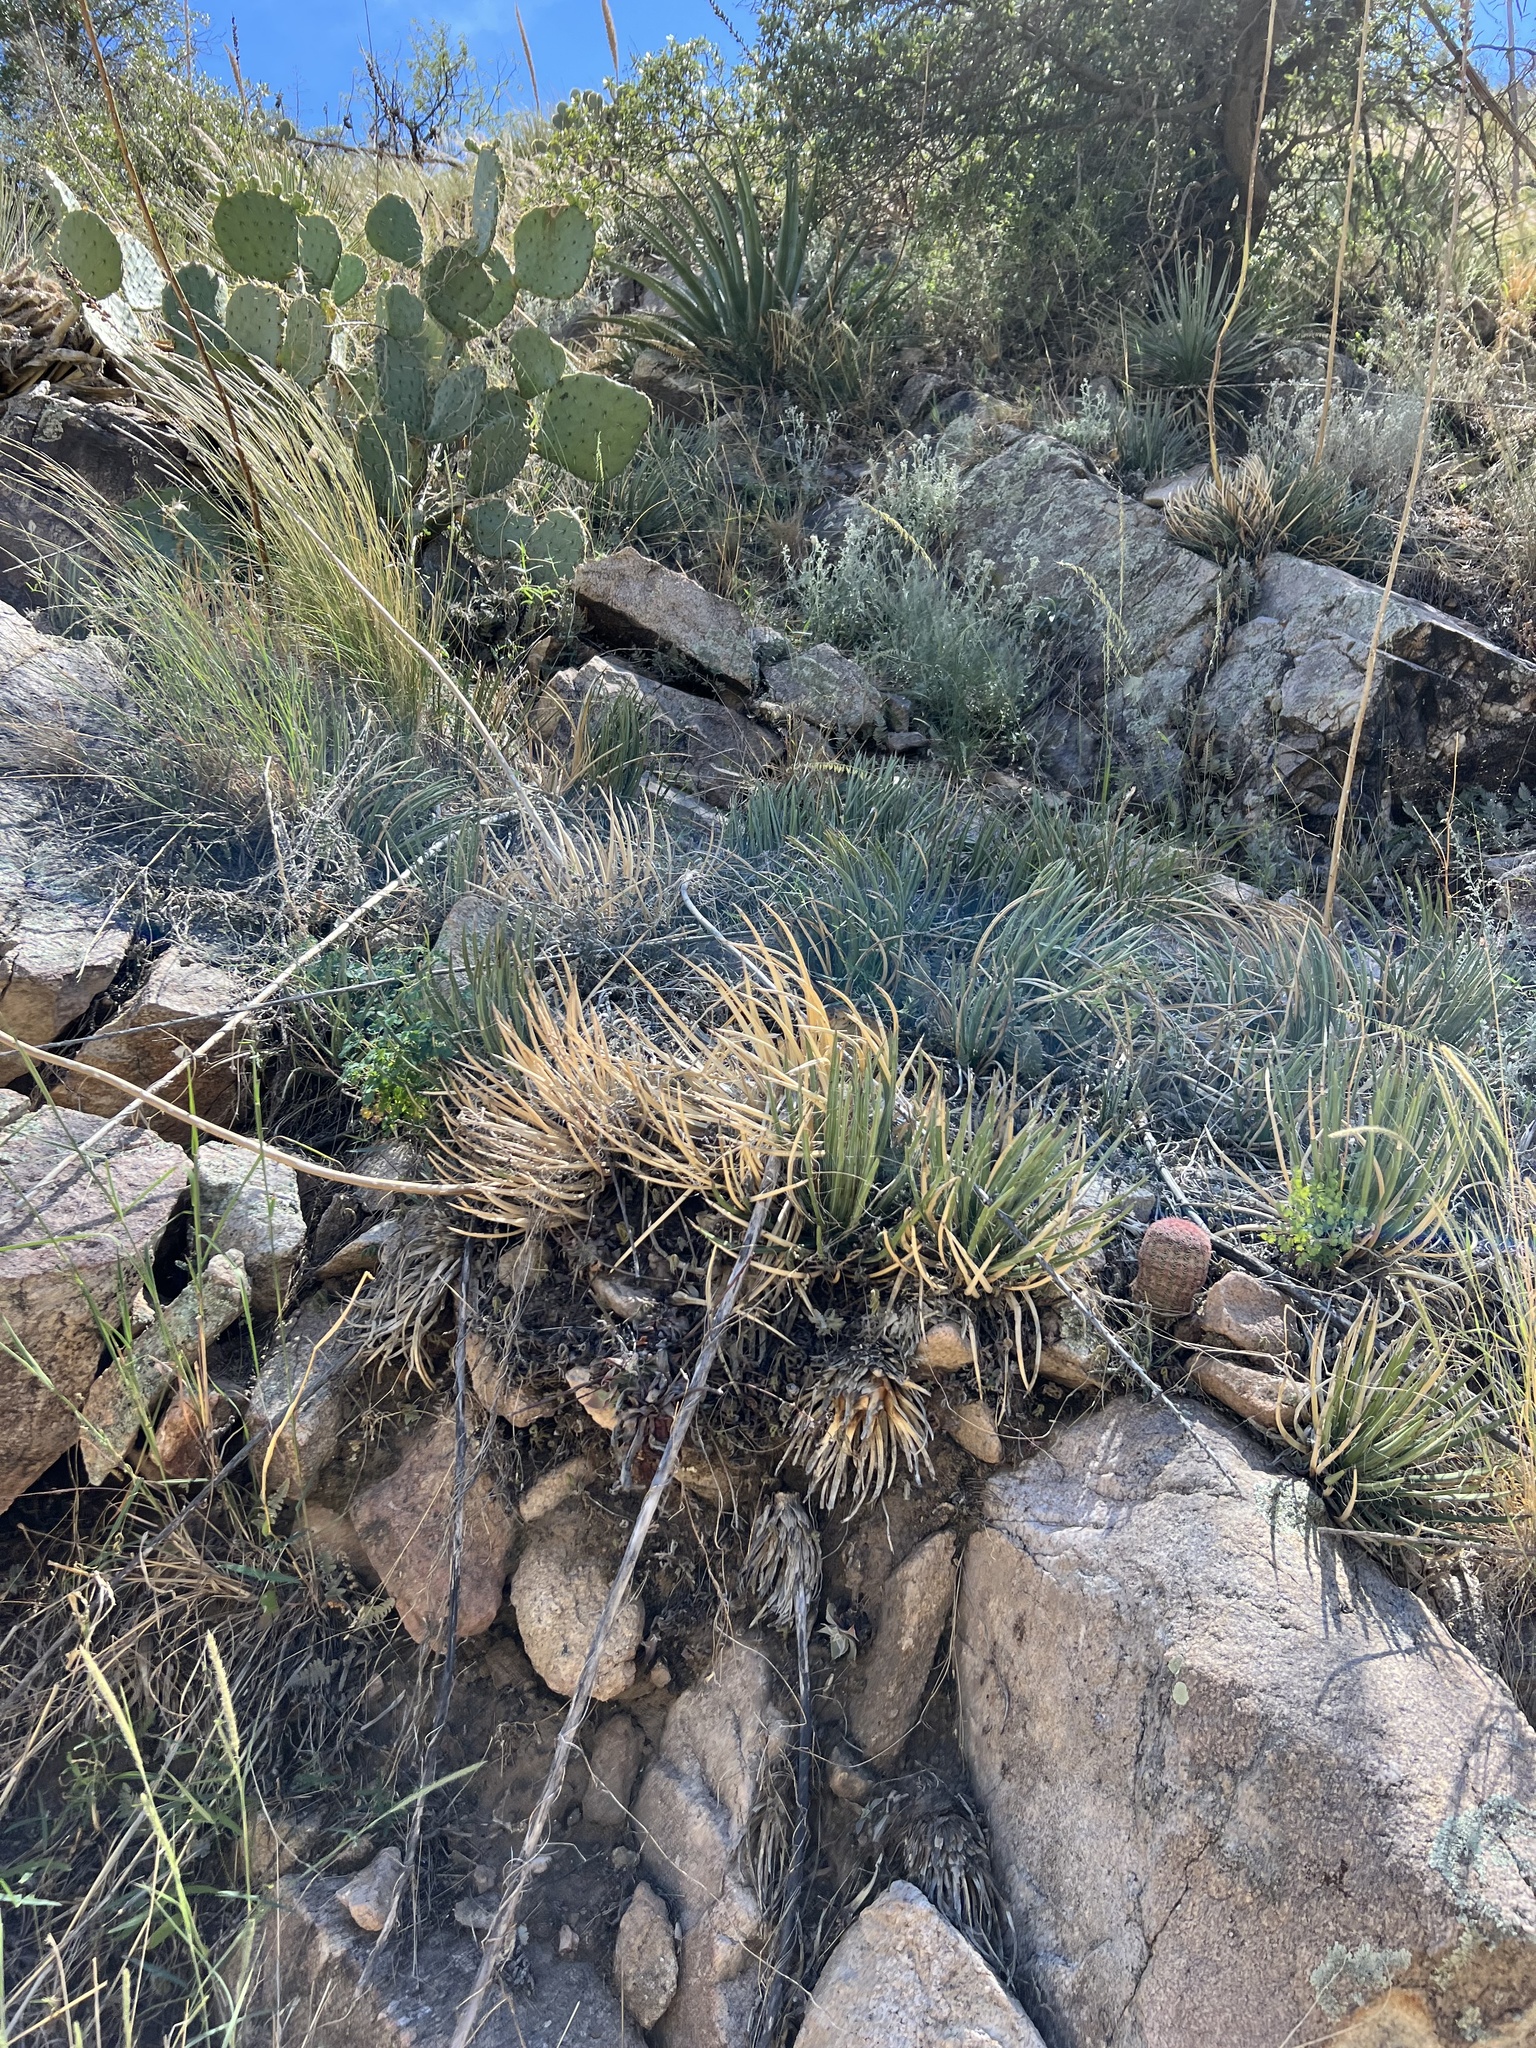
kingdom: Plantae
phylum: Tracheophyta
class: Liliopsida
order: Asparagales
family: Asparagaceae
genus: Agave
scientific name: Agave schottii
